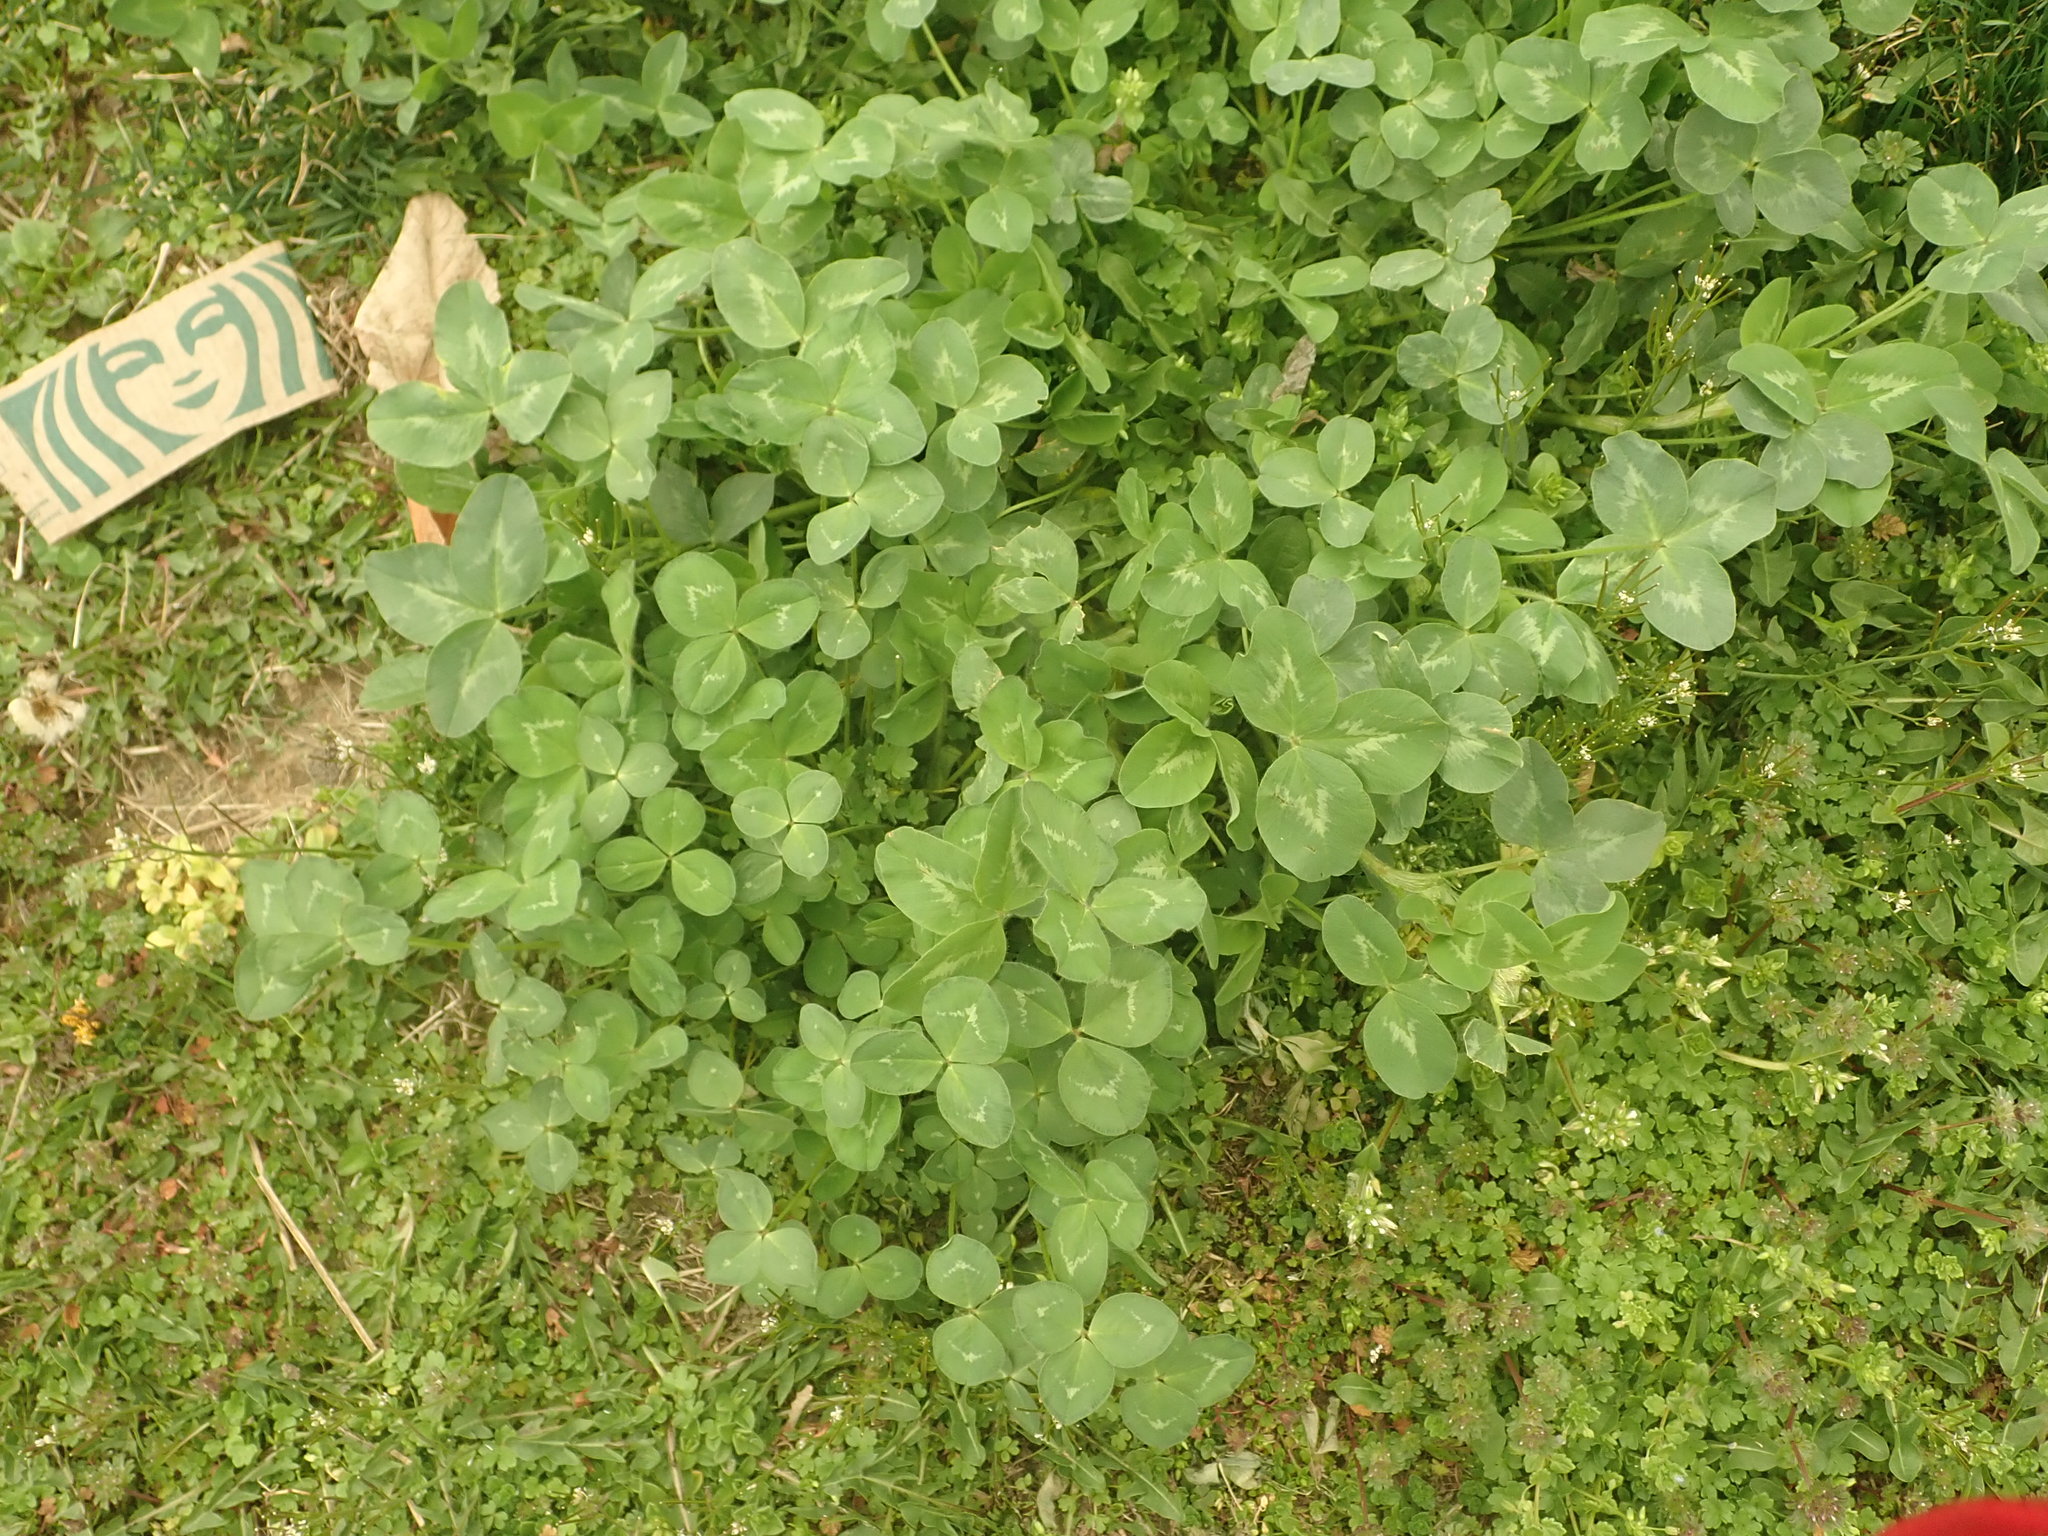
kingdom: Plantae
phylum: Tracheophyta
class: Magnoliopsida
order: Fabales
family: Fabaceae
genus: Trifolium
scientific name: Trifolium pratense
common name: Red clover
